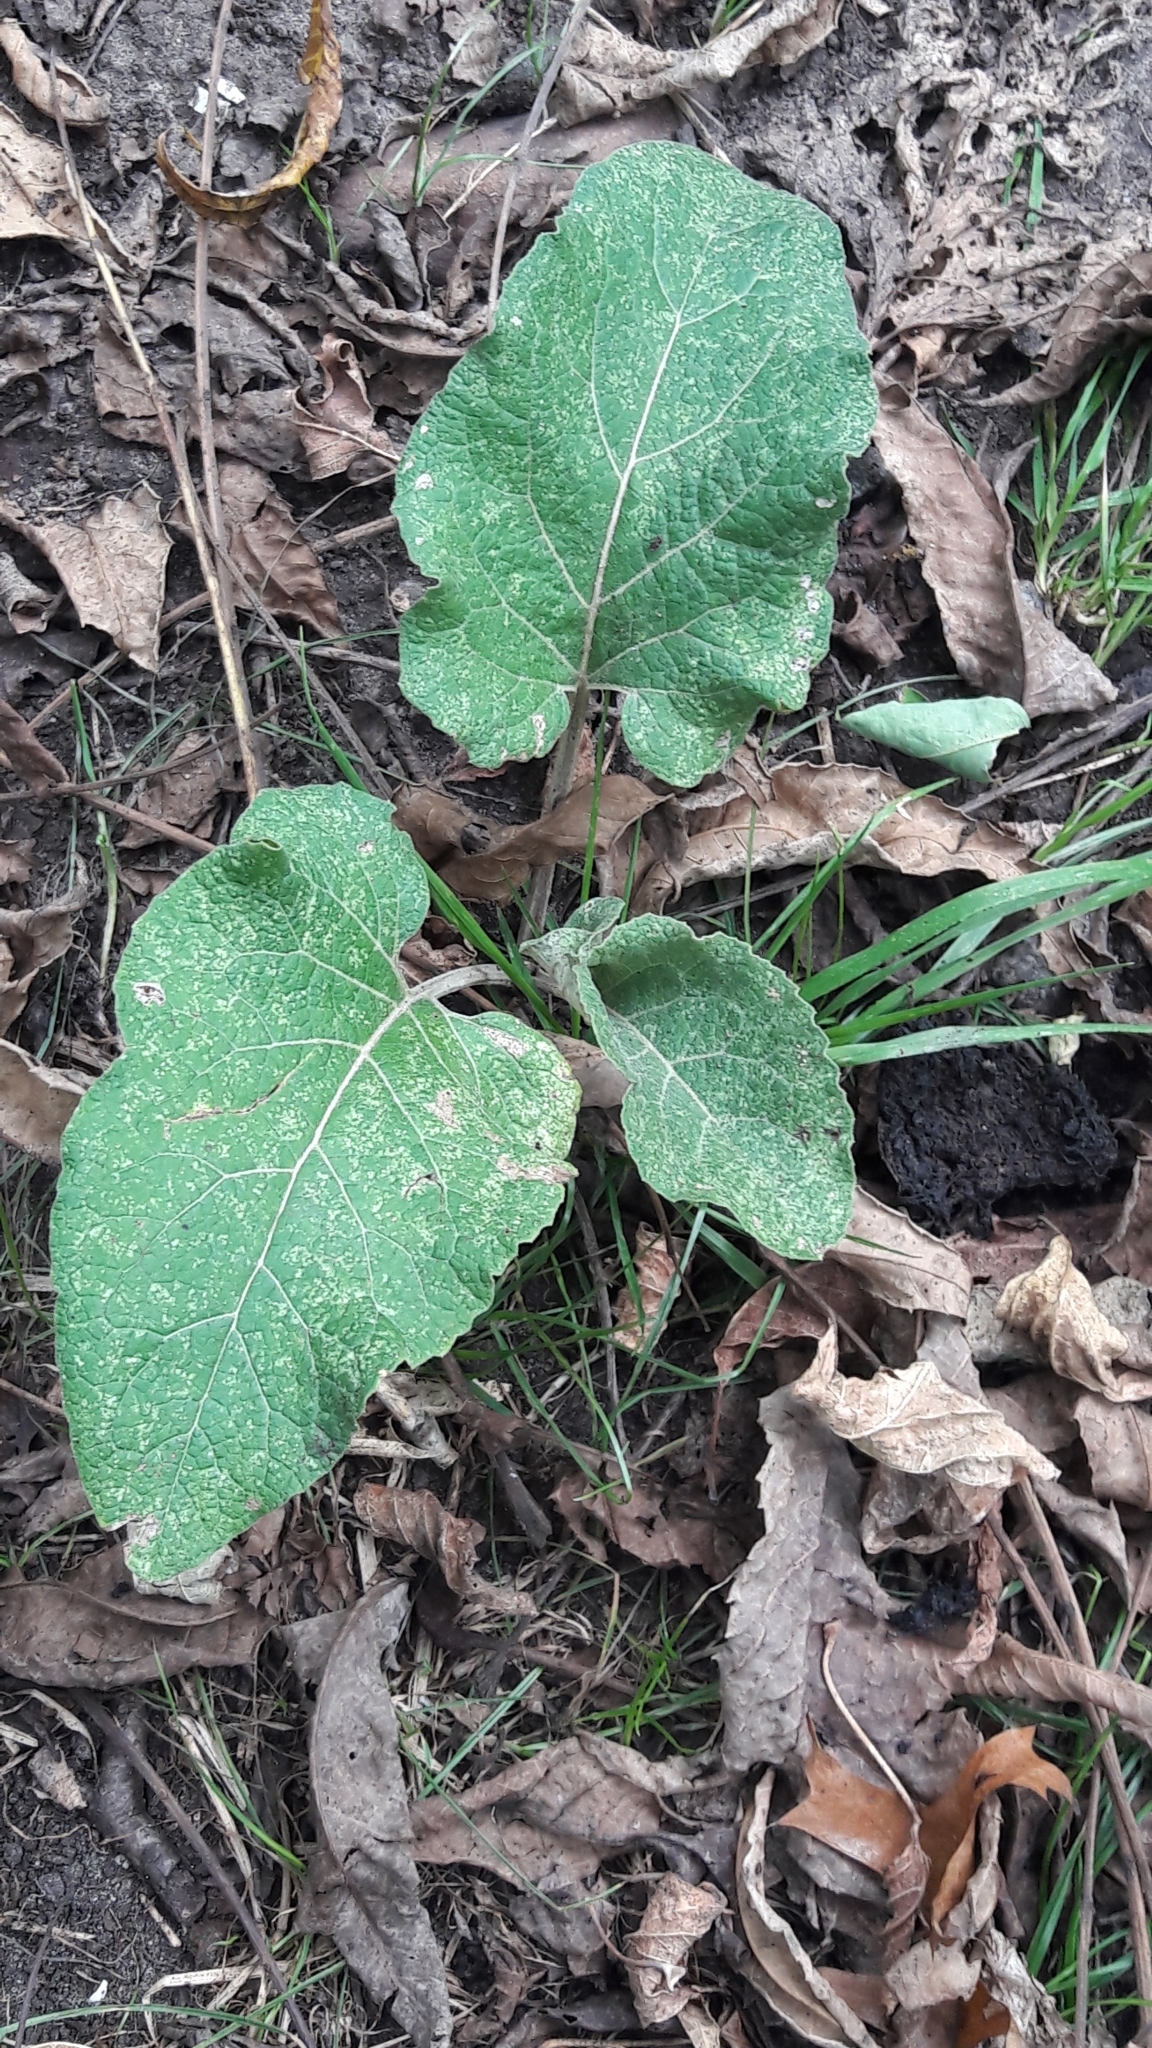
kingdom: Plantae
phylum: Tracheophyta
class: Magnoliopsida
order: Asterales
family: Asteraceae
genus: Arctium
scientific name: Arctium
